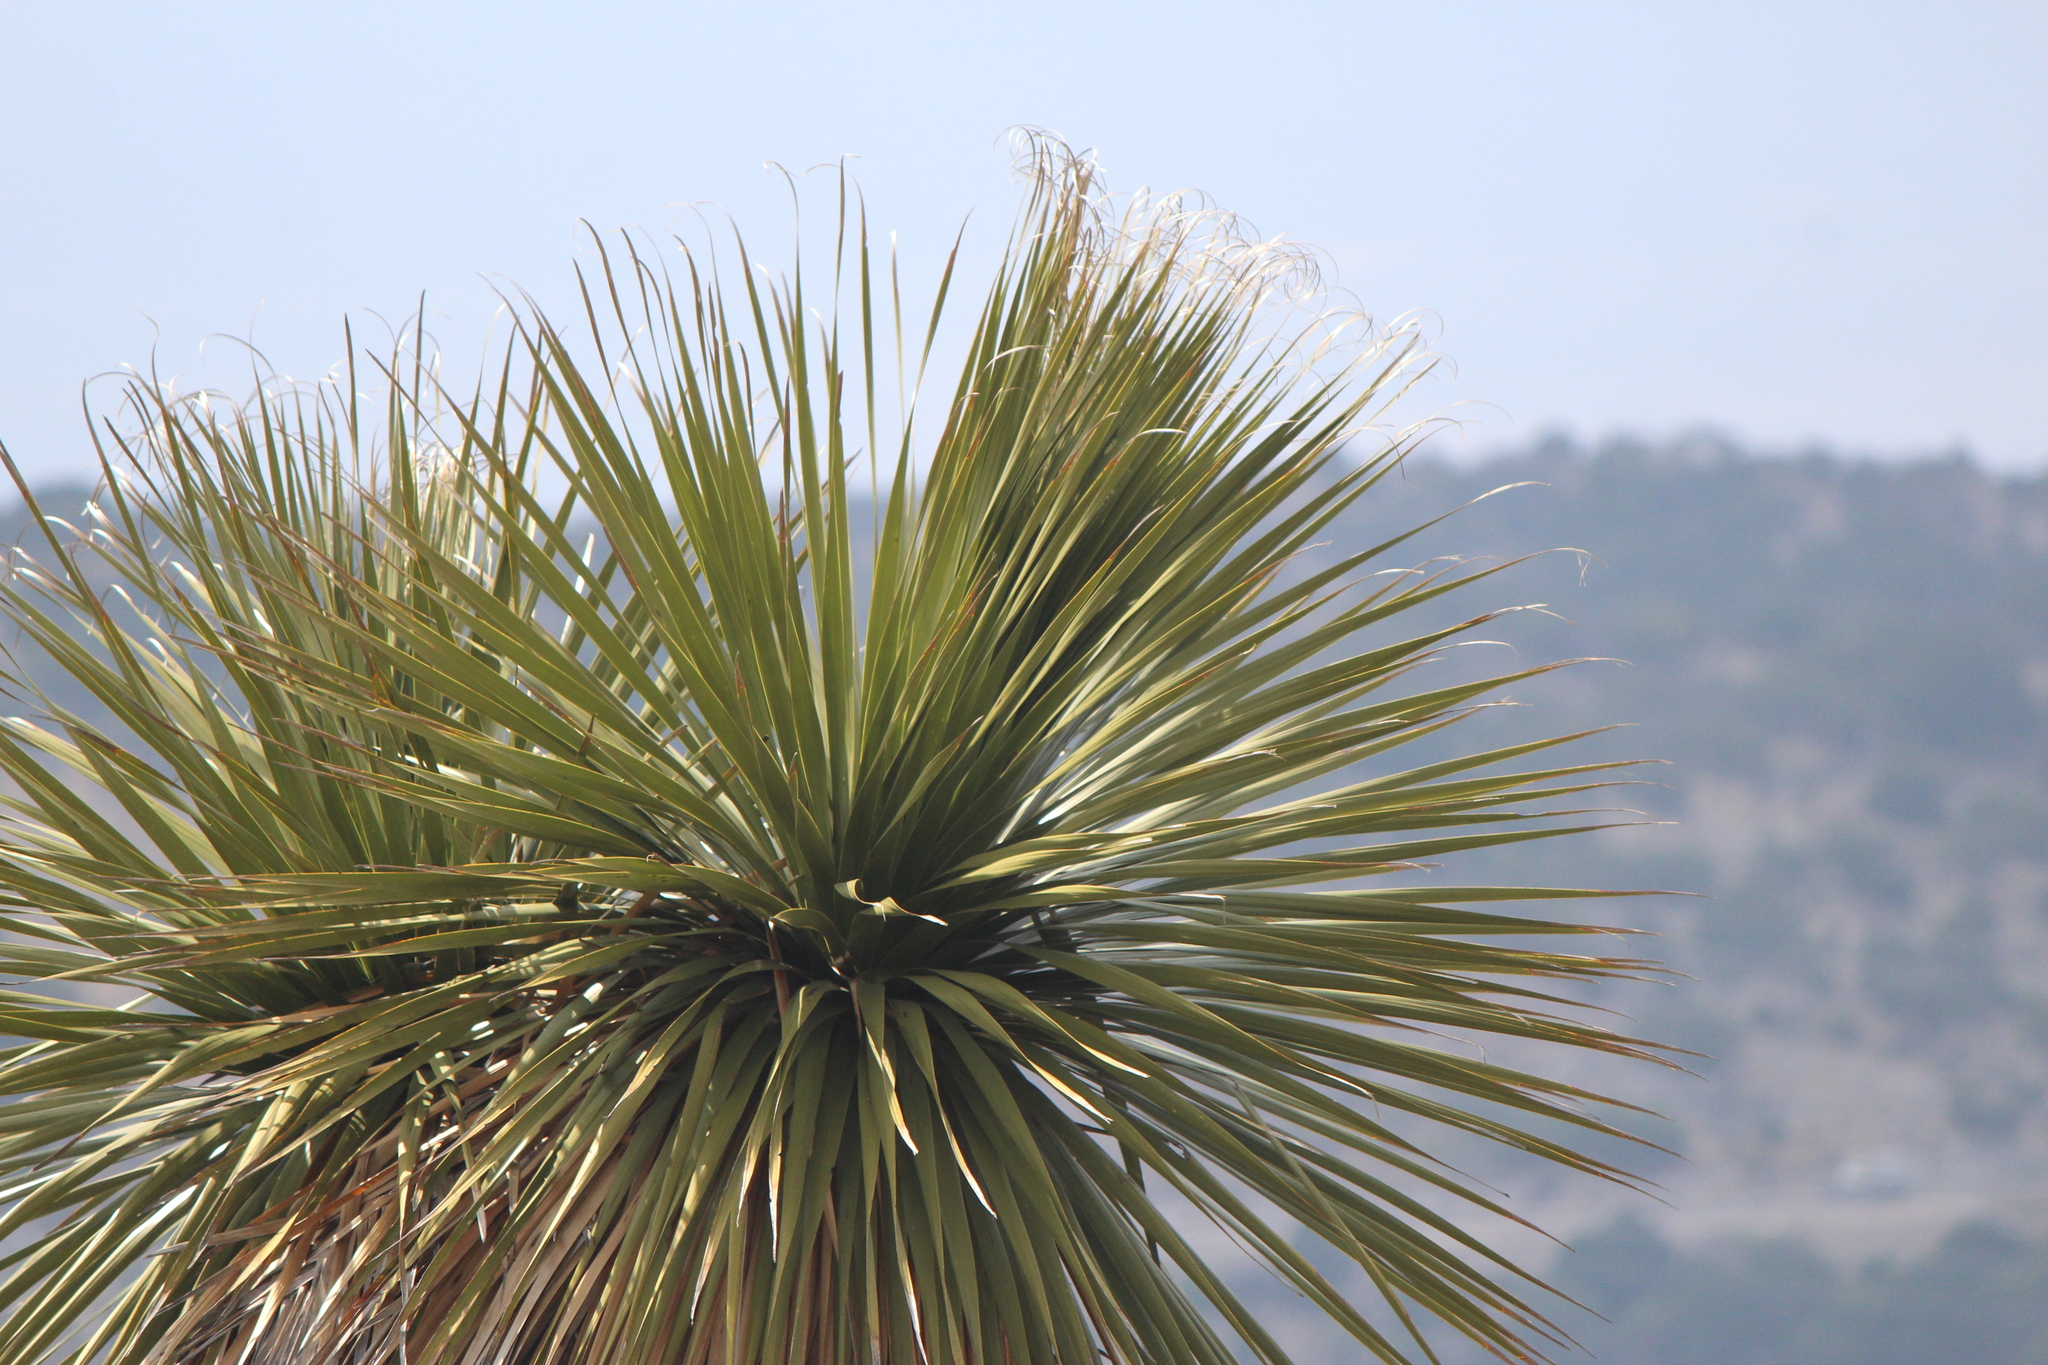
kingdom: Plantae
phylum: Tracheophyta
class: Liliopsida
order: Asparagales
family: Asparagaceae
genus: Nolina
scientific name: Nolina parviflora
